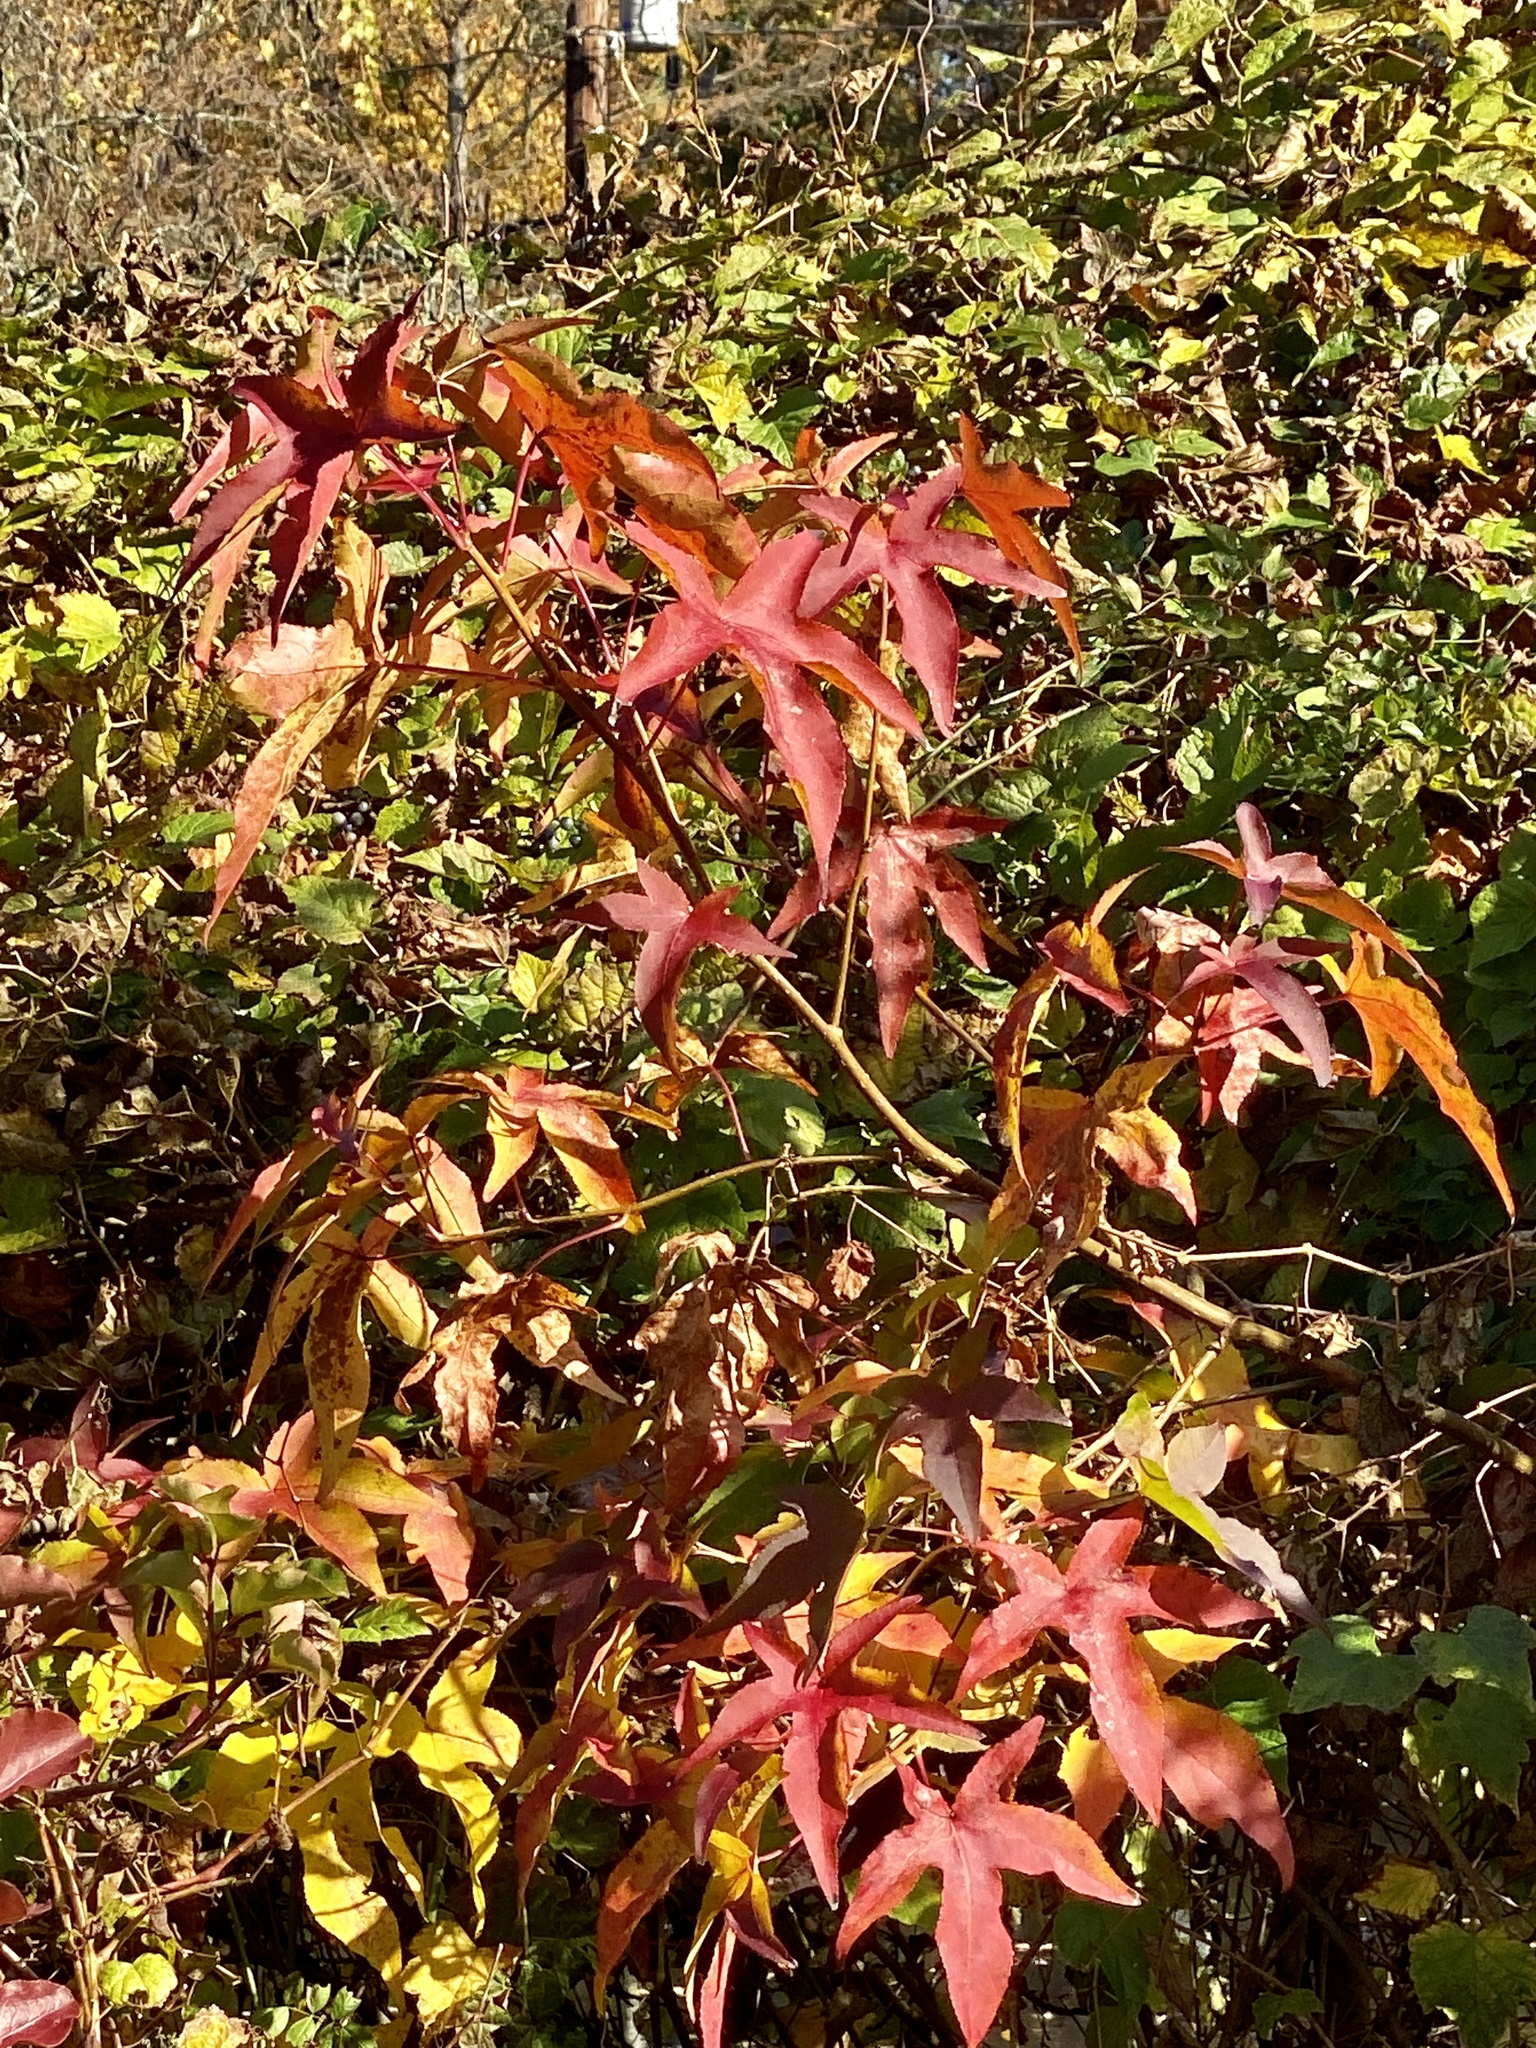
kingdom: Plantae
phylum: Tracheophyta
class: Magnoliopsida
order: Saxifragales
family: Altingiaceae
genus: Liquidambar
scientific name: Liquidambar styraciflua
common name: Sweet gum
